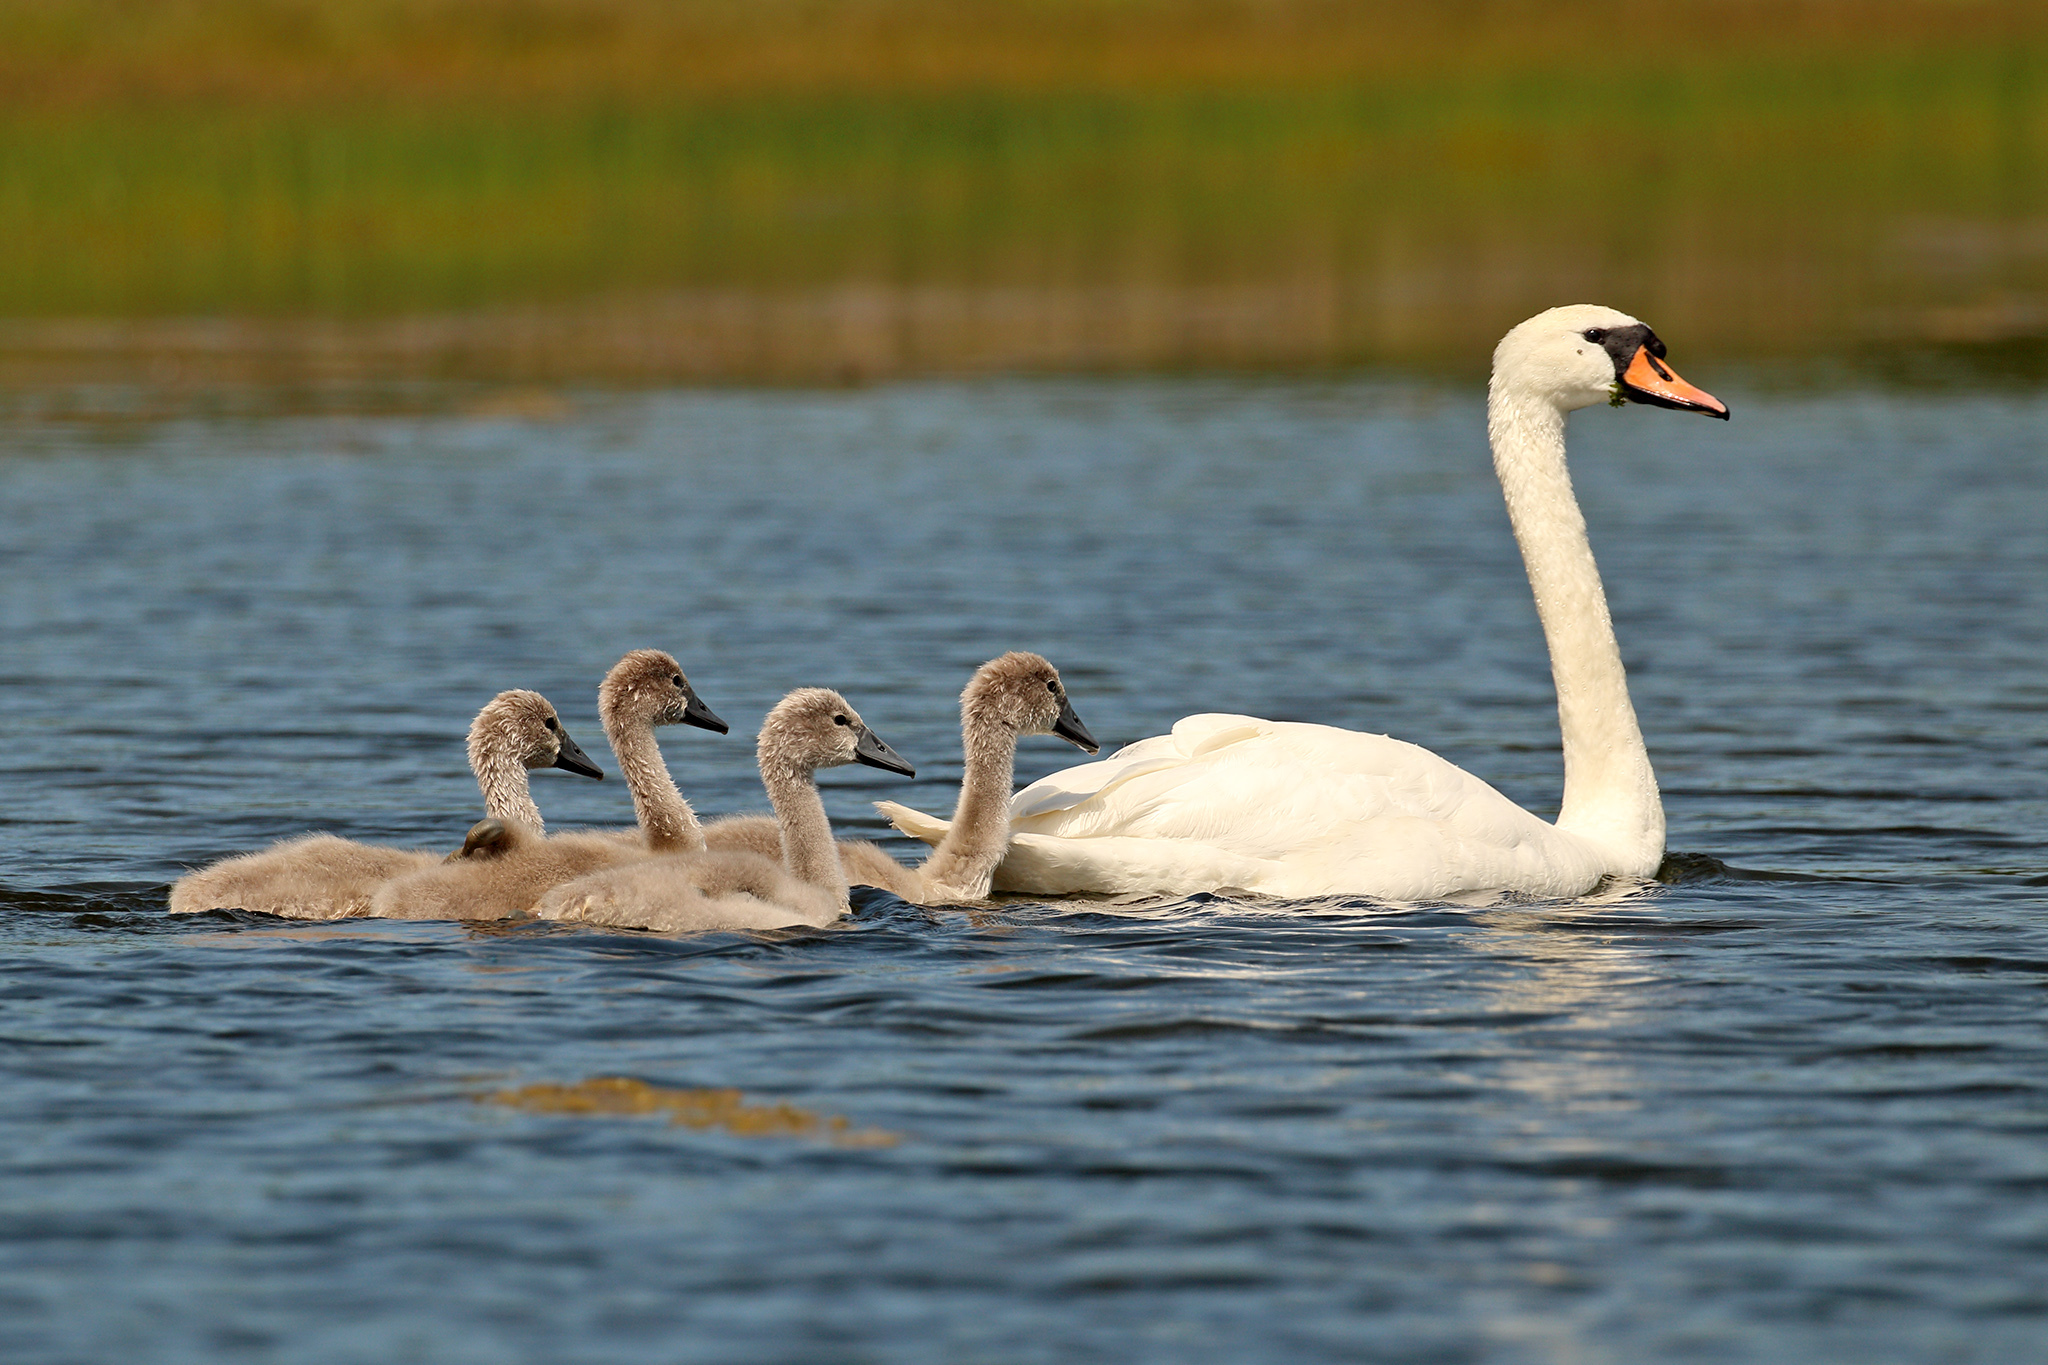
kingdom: Animalia
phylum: Chordata
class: Aves
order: Anseriformes
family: Anatidae
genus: Cygnus
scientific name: Cygnus olor
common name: Mute swan
